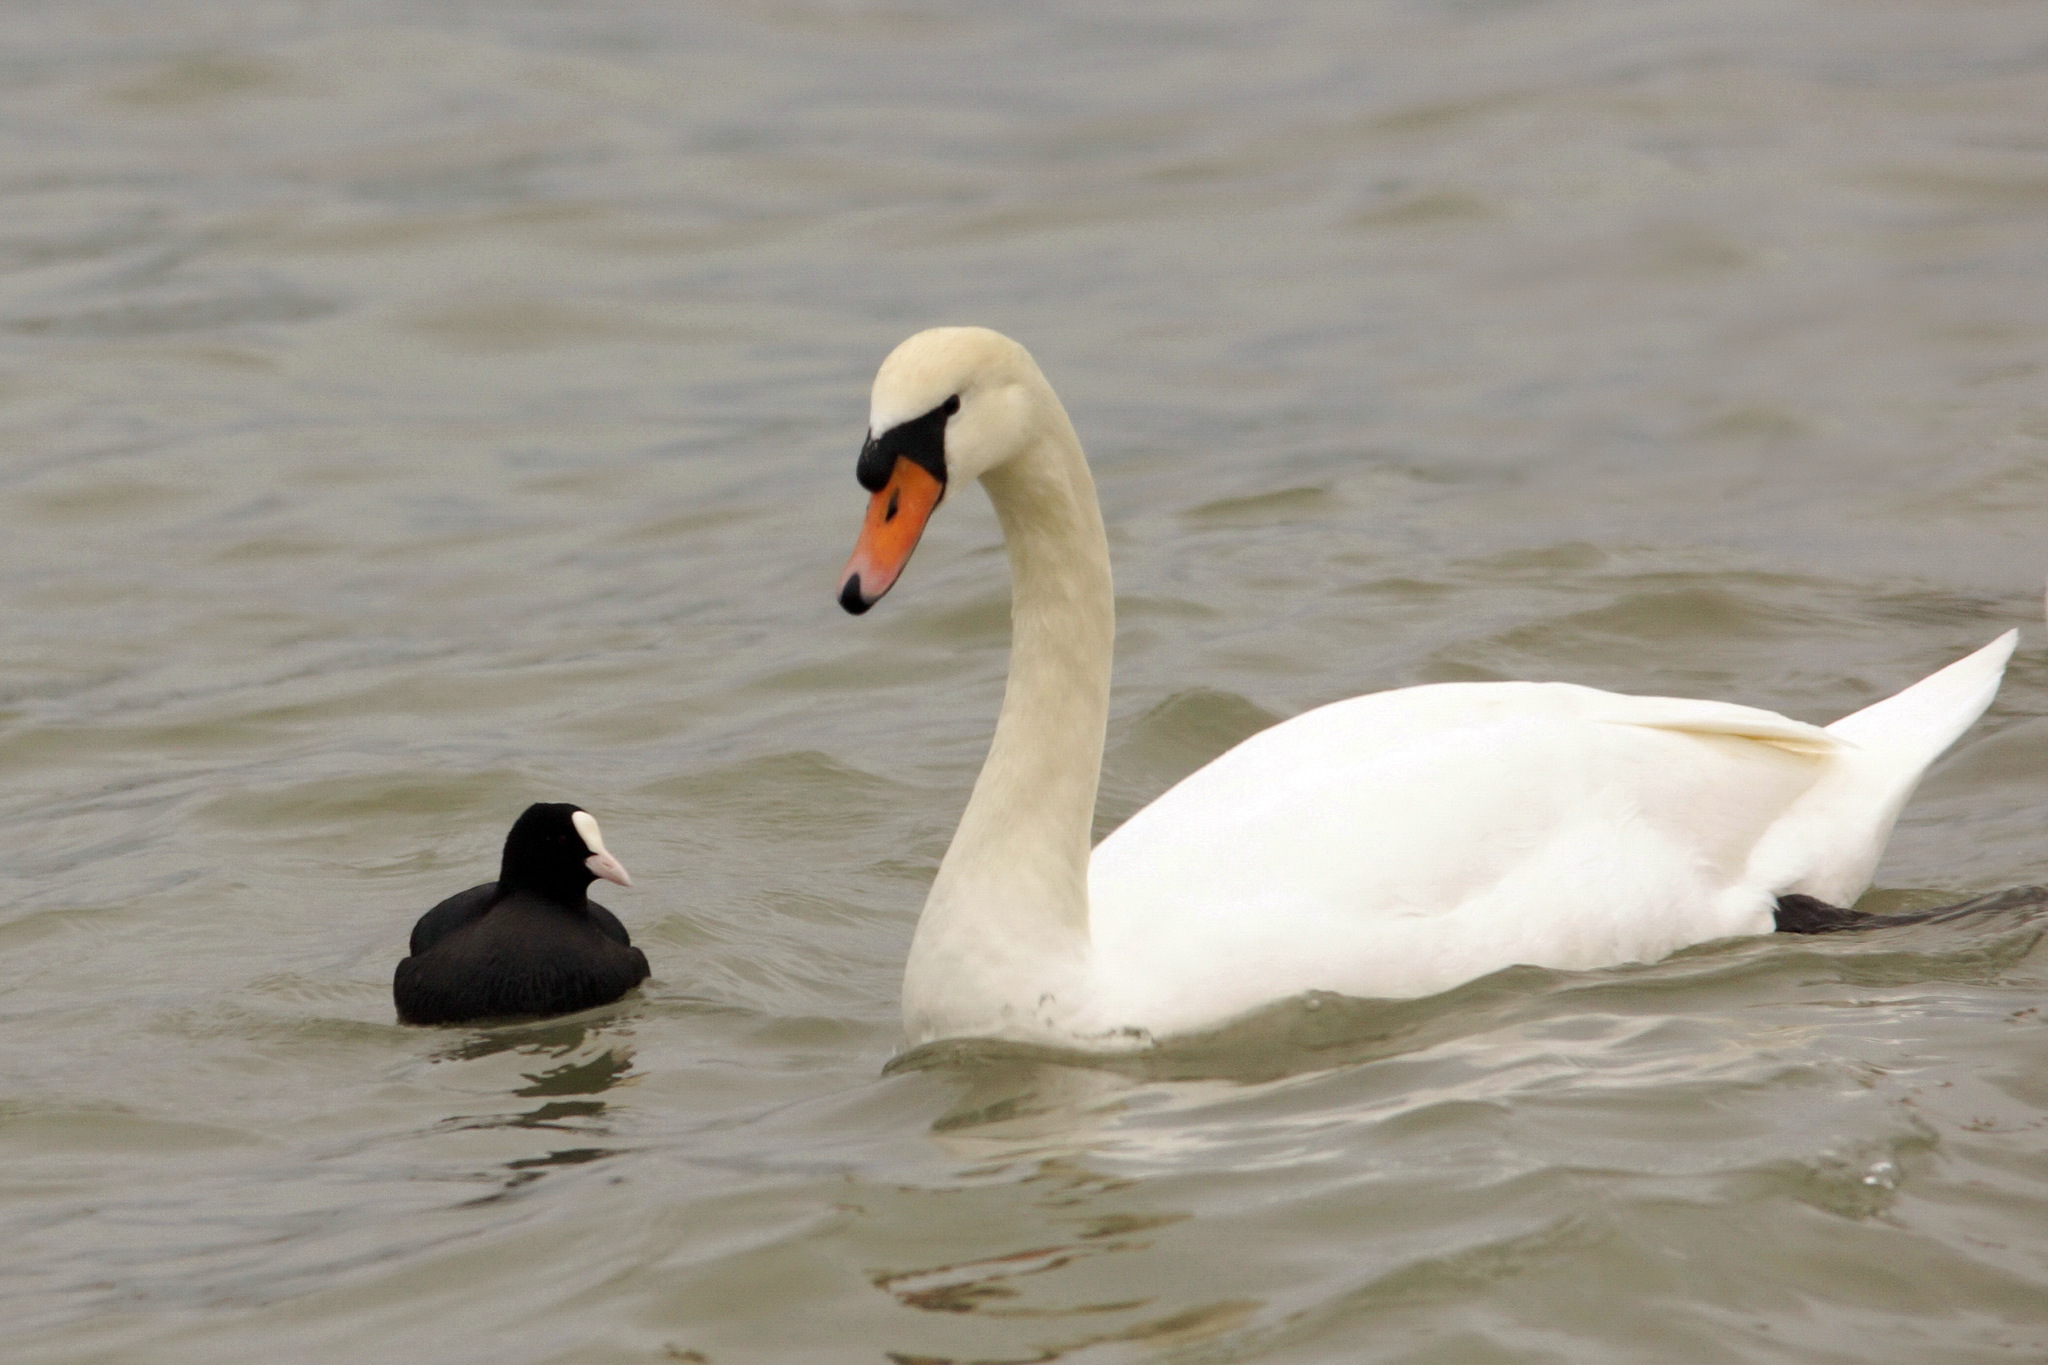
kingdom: Animalia
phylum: Chordata
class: Aves
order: Gruiformes
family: Rallidae
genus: Fulica
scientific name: Fulica atra
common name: Eurasian coot
